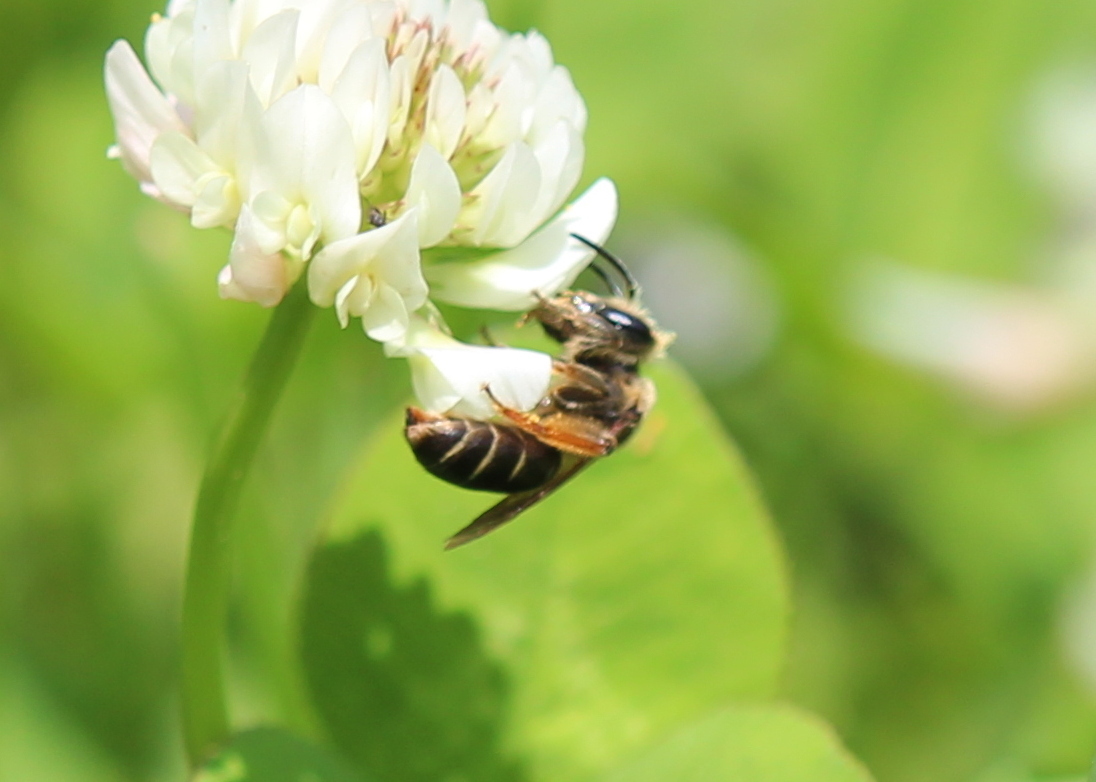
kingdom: Animalia
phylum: Arthropoda
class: Insecta
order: Hymenoptera
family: Andrenidae
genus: Andrena
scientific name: Andrena wilkella
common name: Wilke's mining bee
